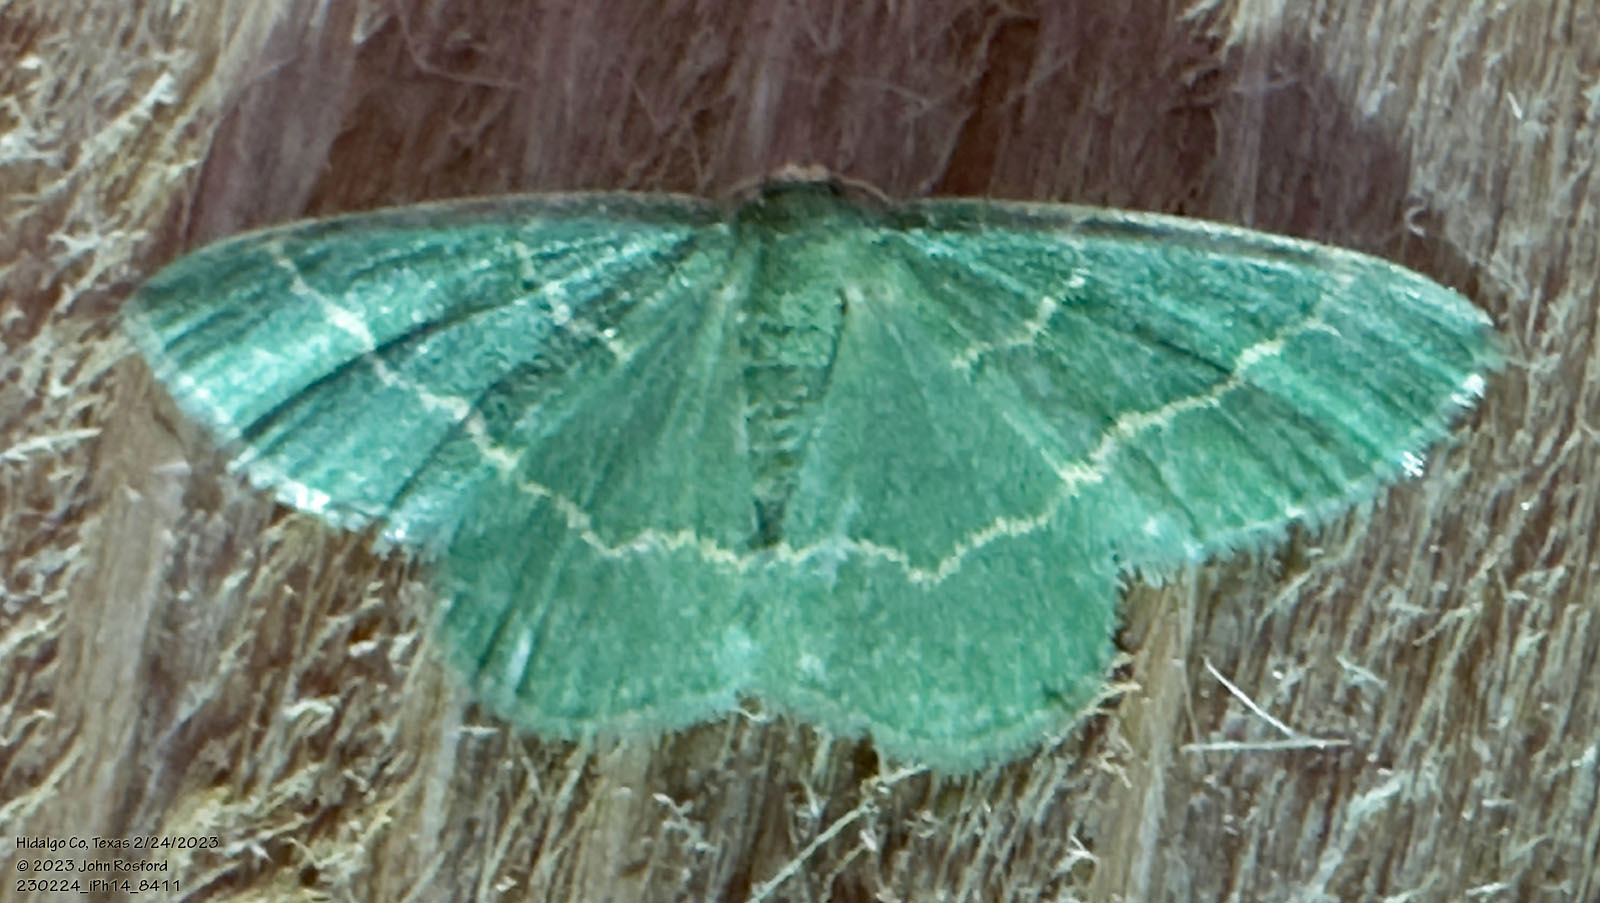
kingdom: Animalia
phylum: Arthropoda
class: Insecta
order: Lepidoptera
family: Geometridae
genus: Chlorochlamys
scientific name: Chlorochlamys phyllinaria
